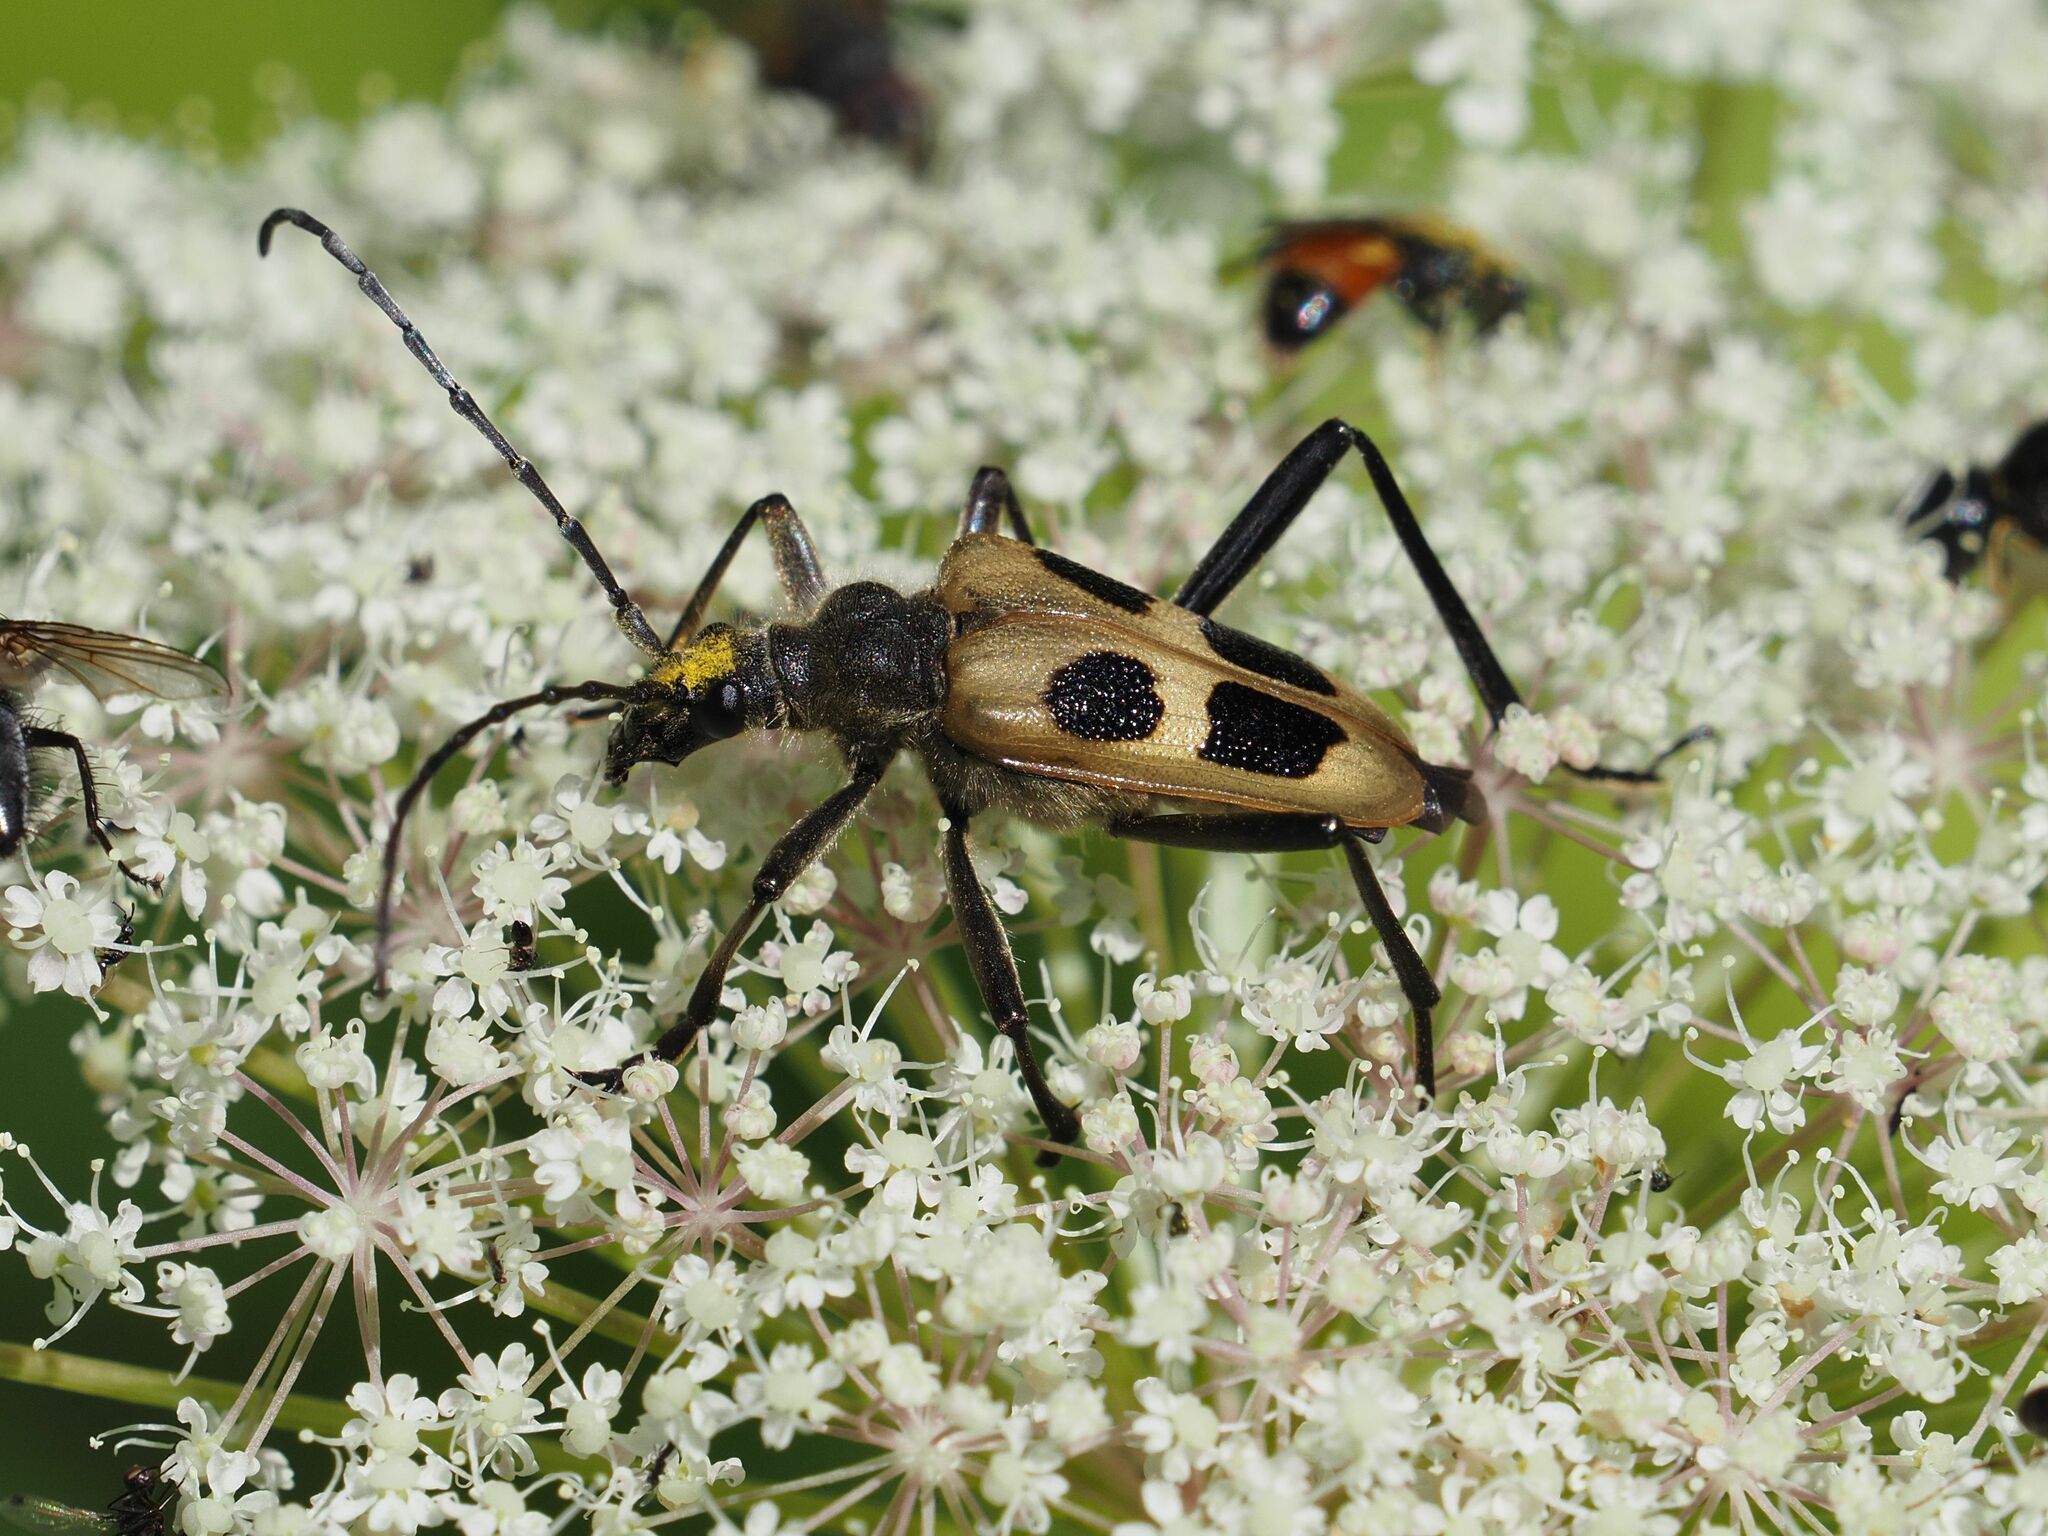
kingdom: Animalia
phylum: Arthropoda
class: Insecta
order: Coleoptera
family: Cerambycidae
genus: Pachyta
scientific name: Pachyta quadrimaculata
